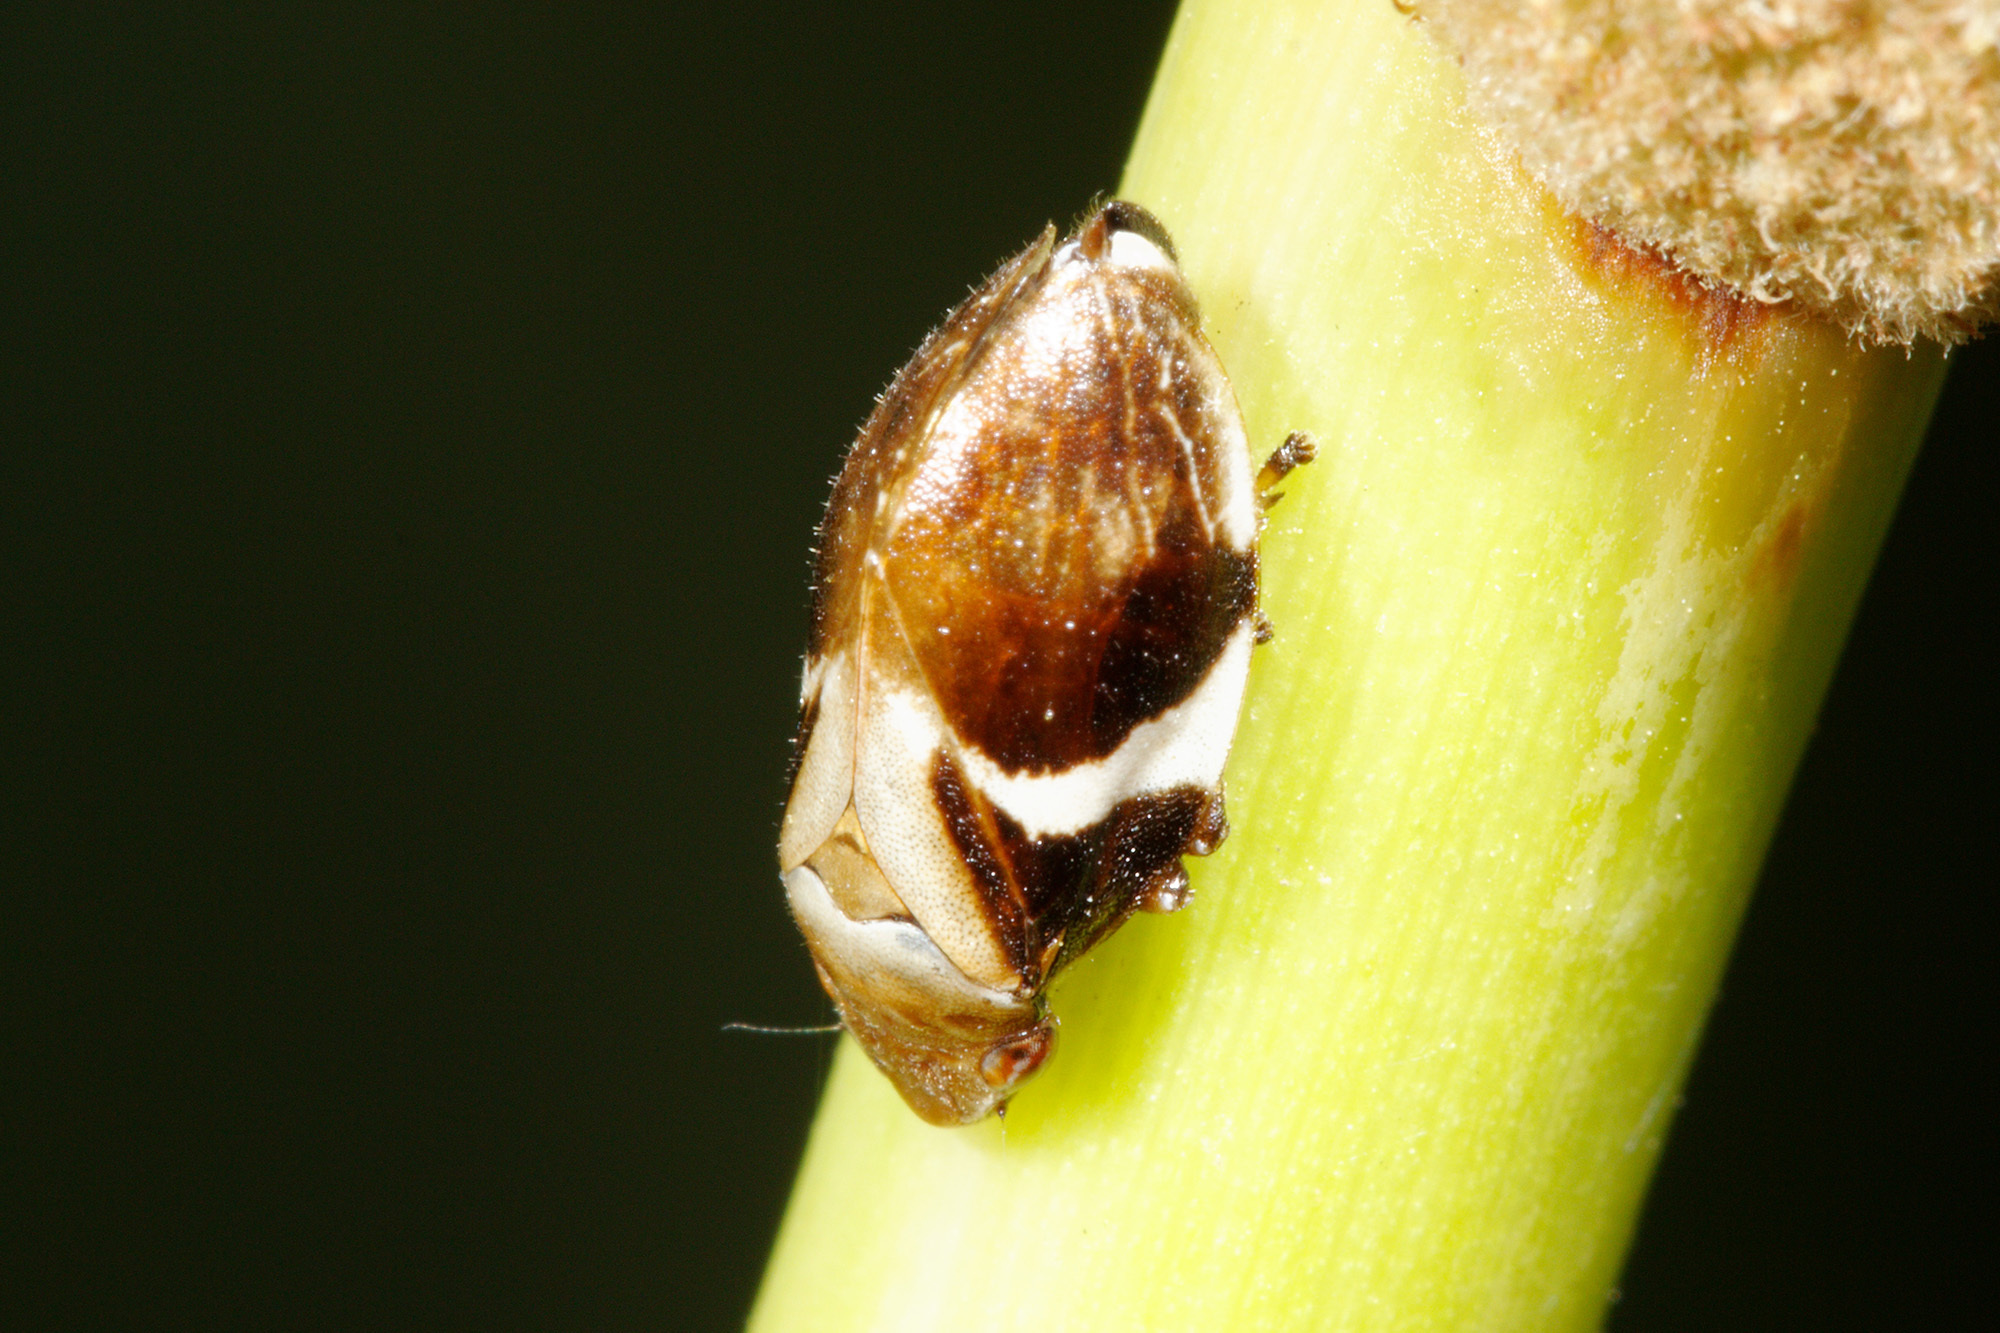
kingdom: Animalia
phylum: Arthropoda
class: Insecta
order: Hemiptera
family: Aphrophoridae
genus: Bathyllus
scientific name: Bathyllus albicinctus
